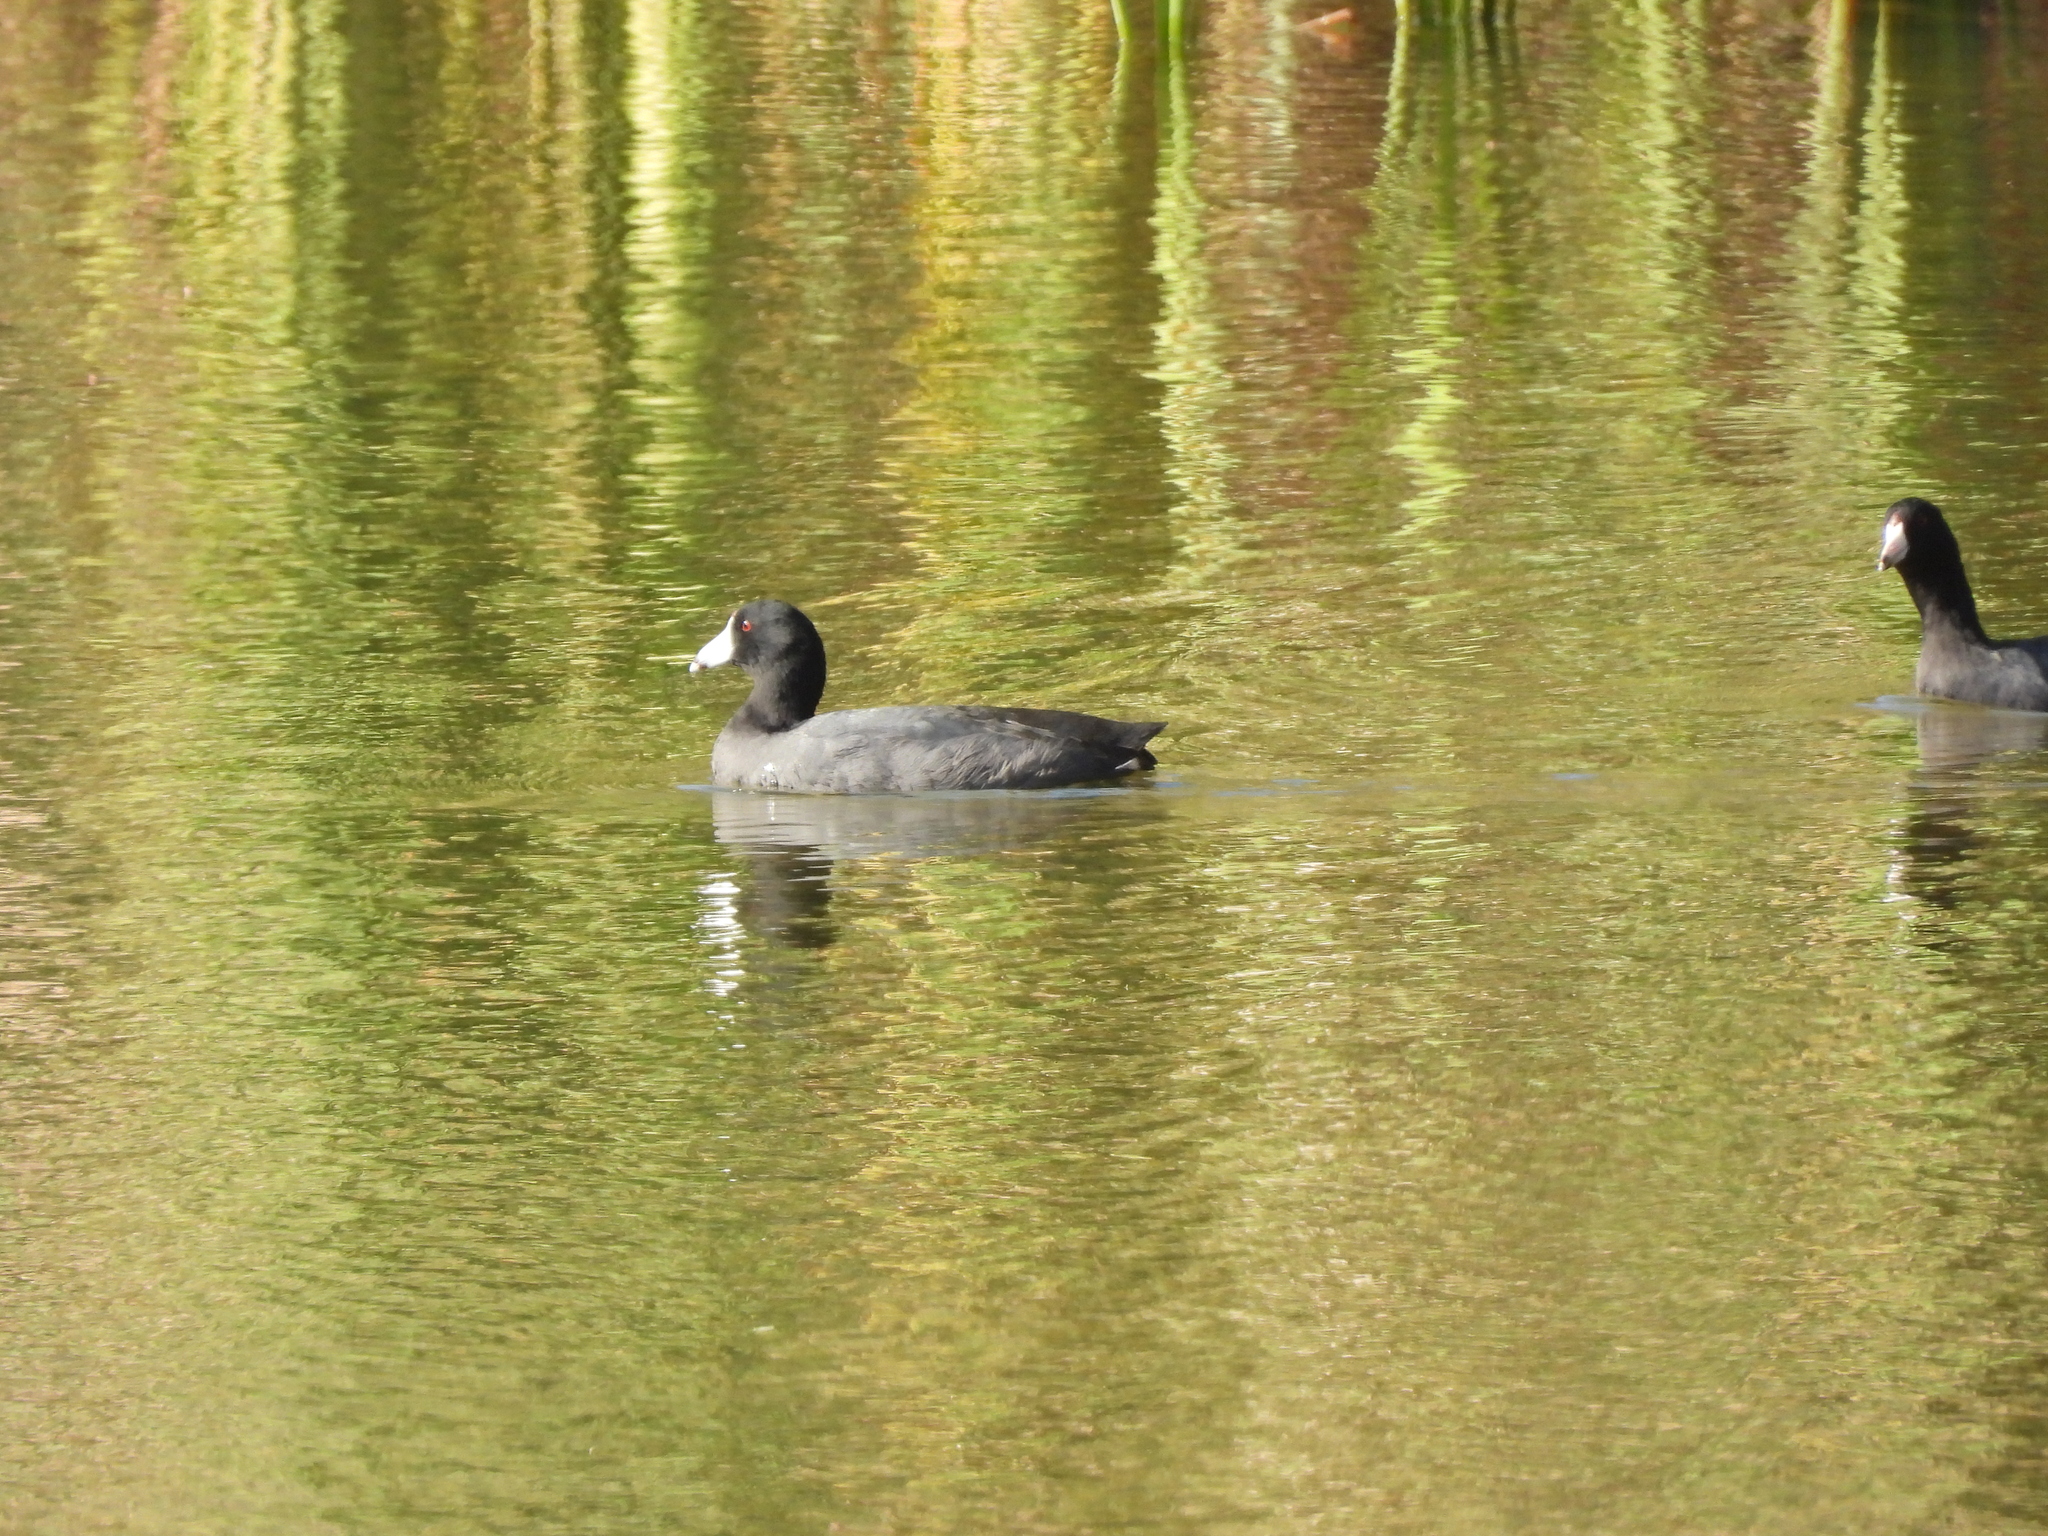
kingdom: Animalia
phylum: Chordata
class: Aves
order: Gruiformes
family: Rallidae
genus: Fulica
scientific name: Fulica americana
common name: American coot
